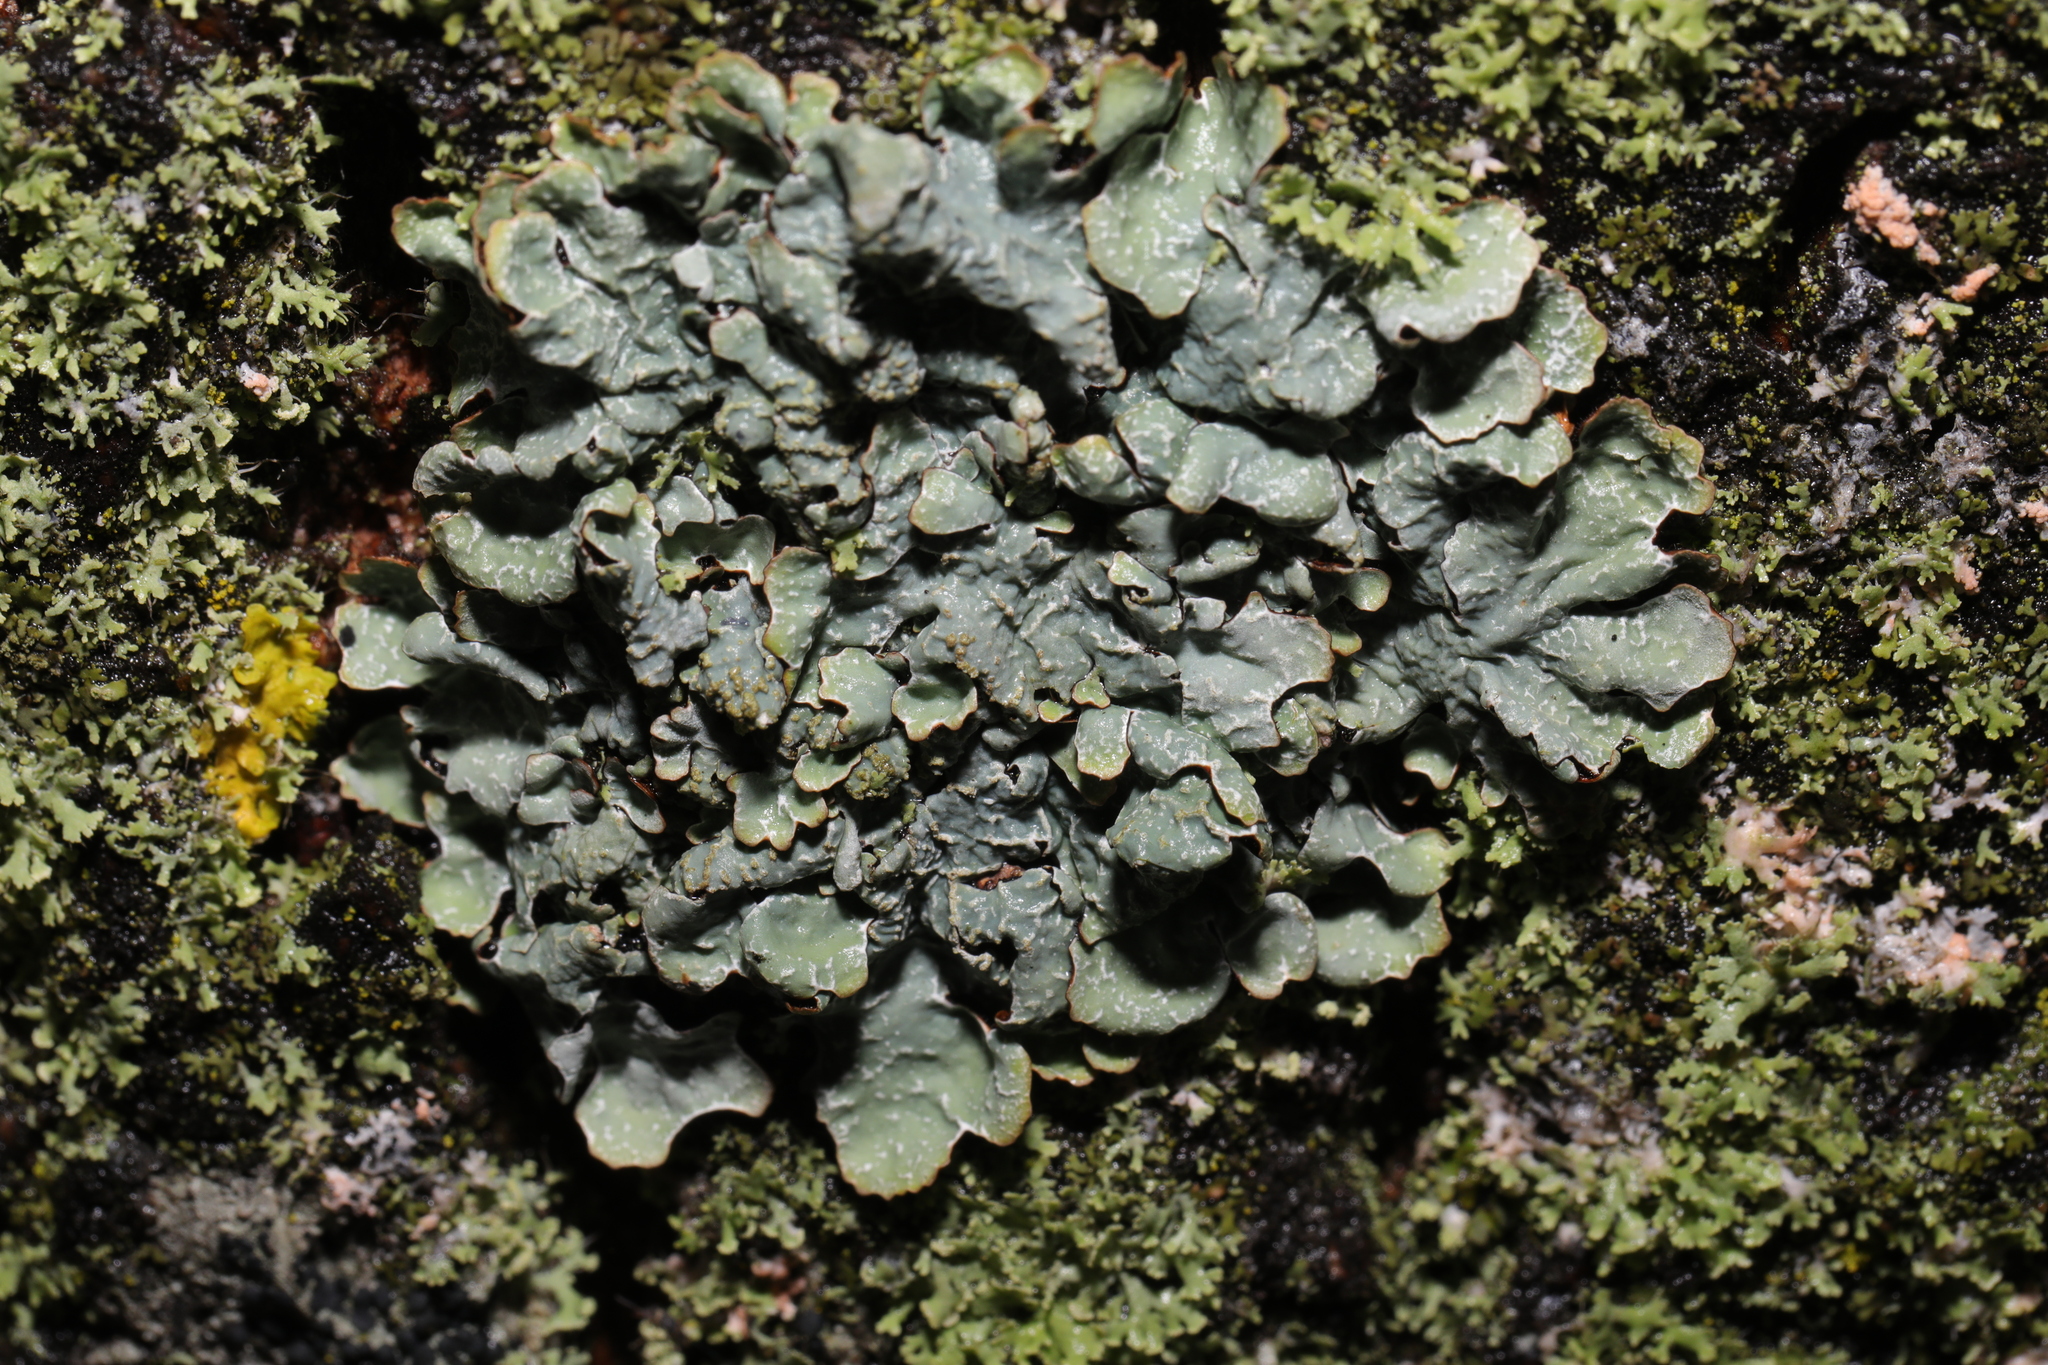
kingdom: Fungi
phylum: Ascomycota
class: Lecanoromycetes
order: Lecanorales
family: Parmeliaceae
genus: Parmelia
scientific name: Parmelia sulcata
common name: Netted shield lichen
